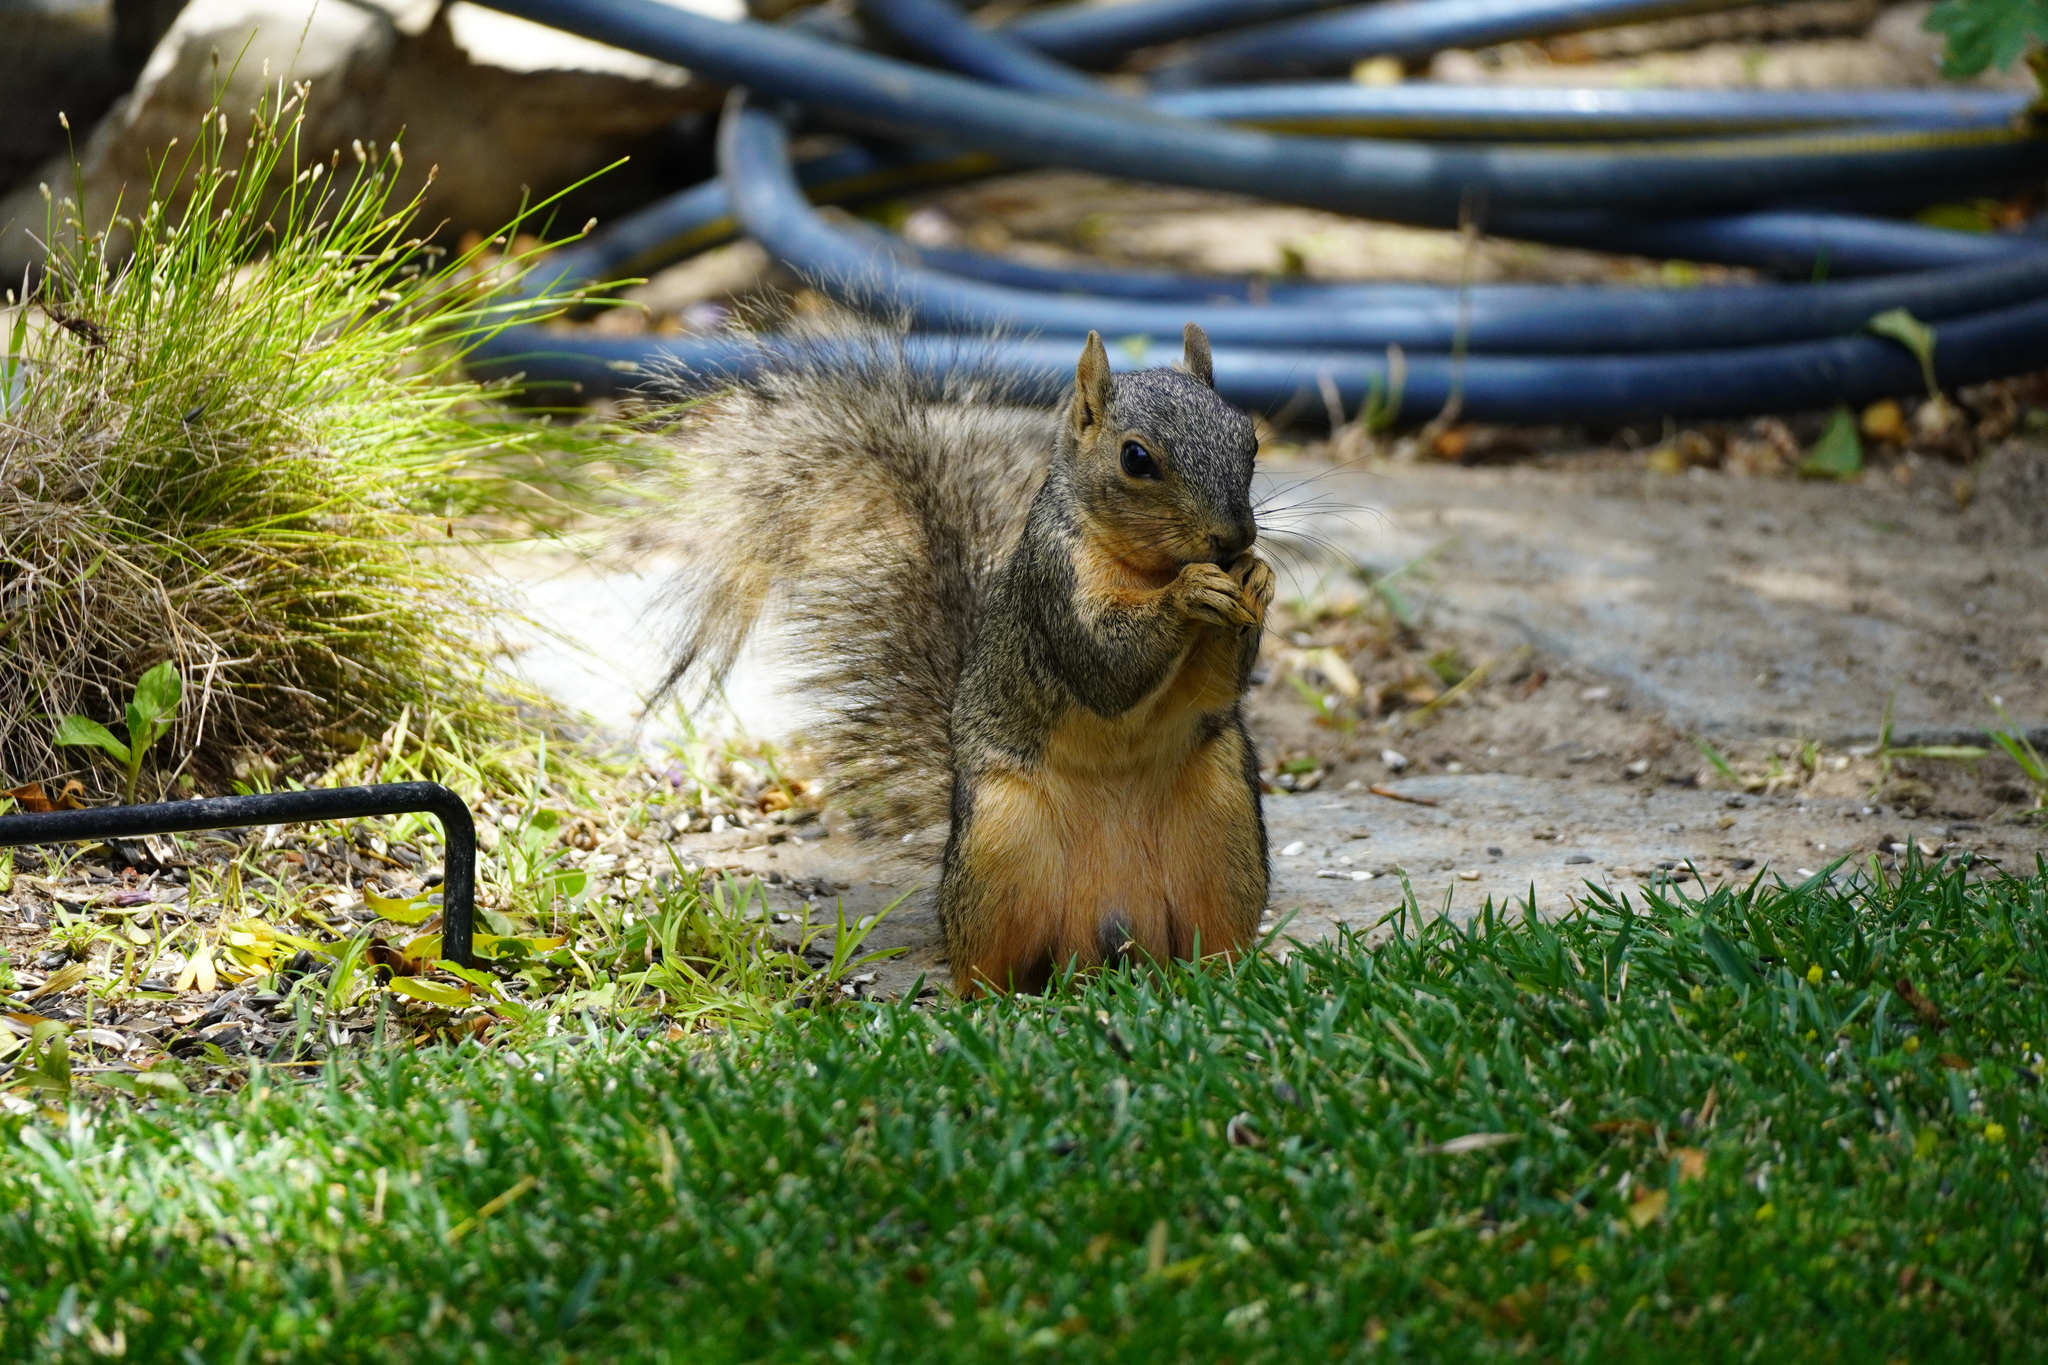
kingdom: Animalia
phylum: Chordata
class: Mammalia
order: Rodentia
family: Sciuridae
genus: Sciurus
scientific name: Sciurus niger
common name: Fox squirrel
